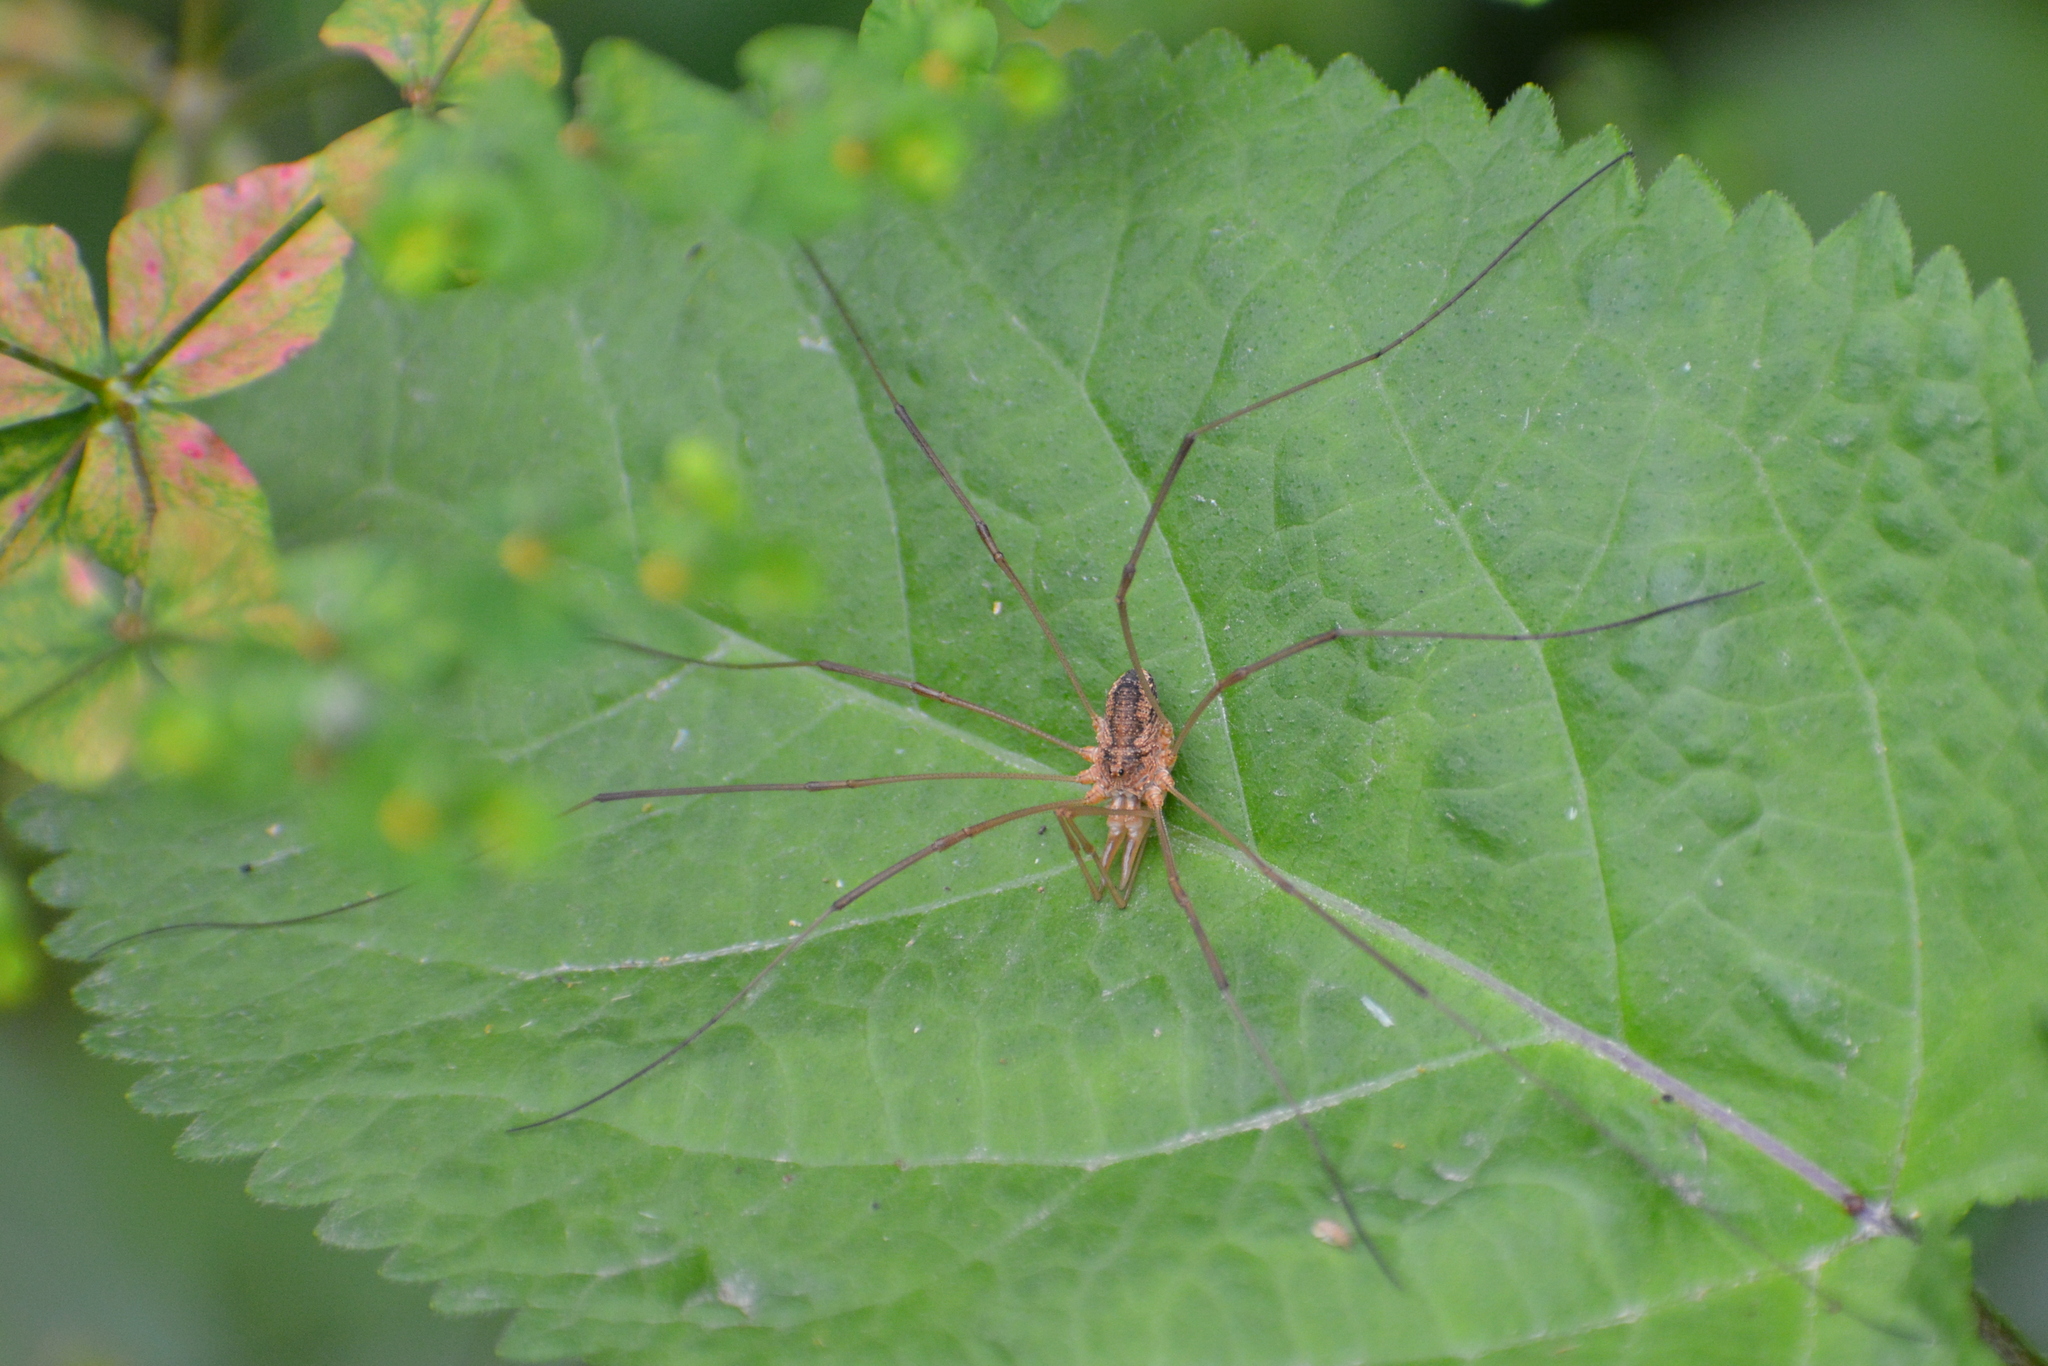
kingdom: Animalia
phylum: Arthropoda
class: Arachnida
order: Opiliones
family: Phalangiidae
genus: Phalangium
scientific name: Phalangium opilio
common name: Daddy longleg
